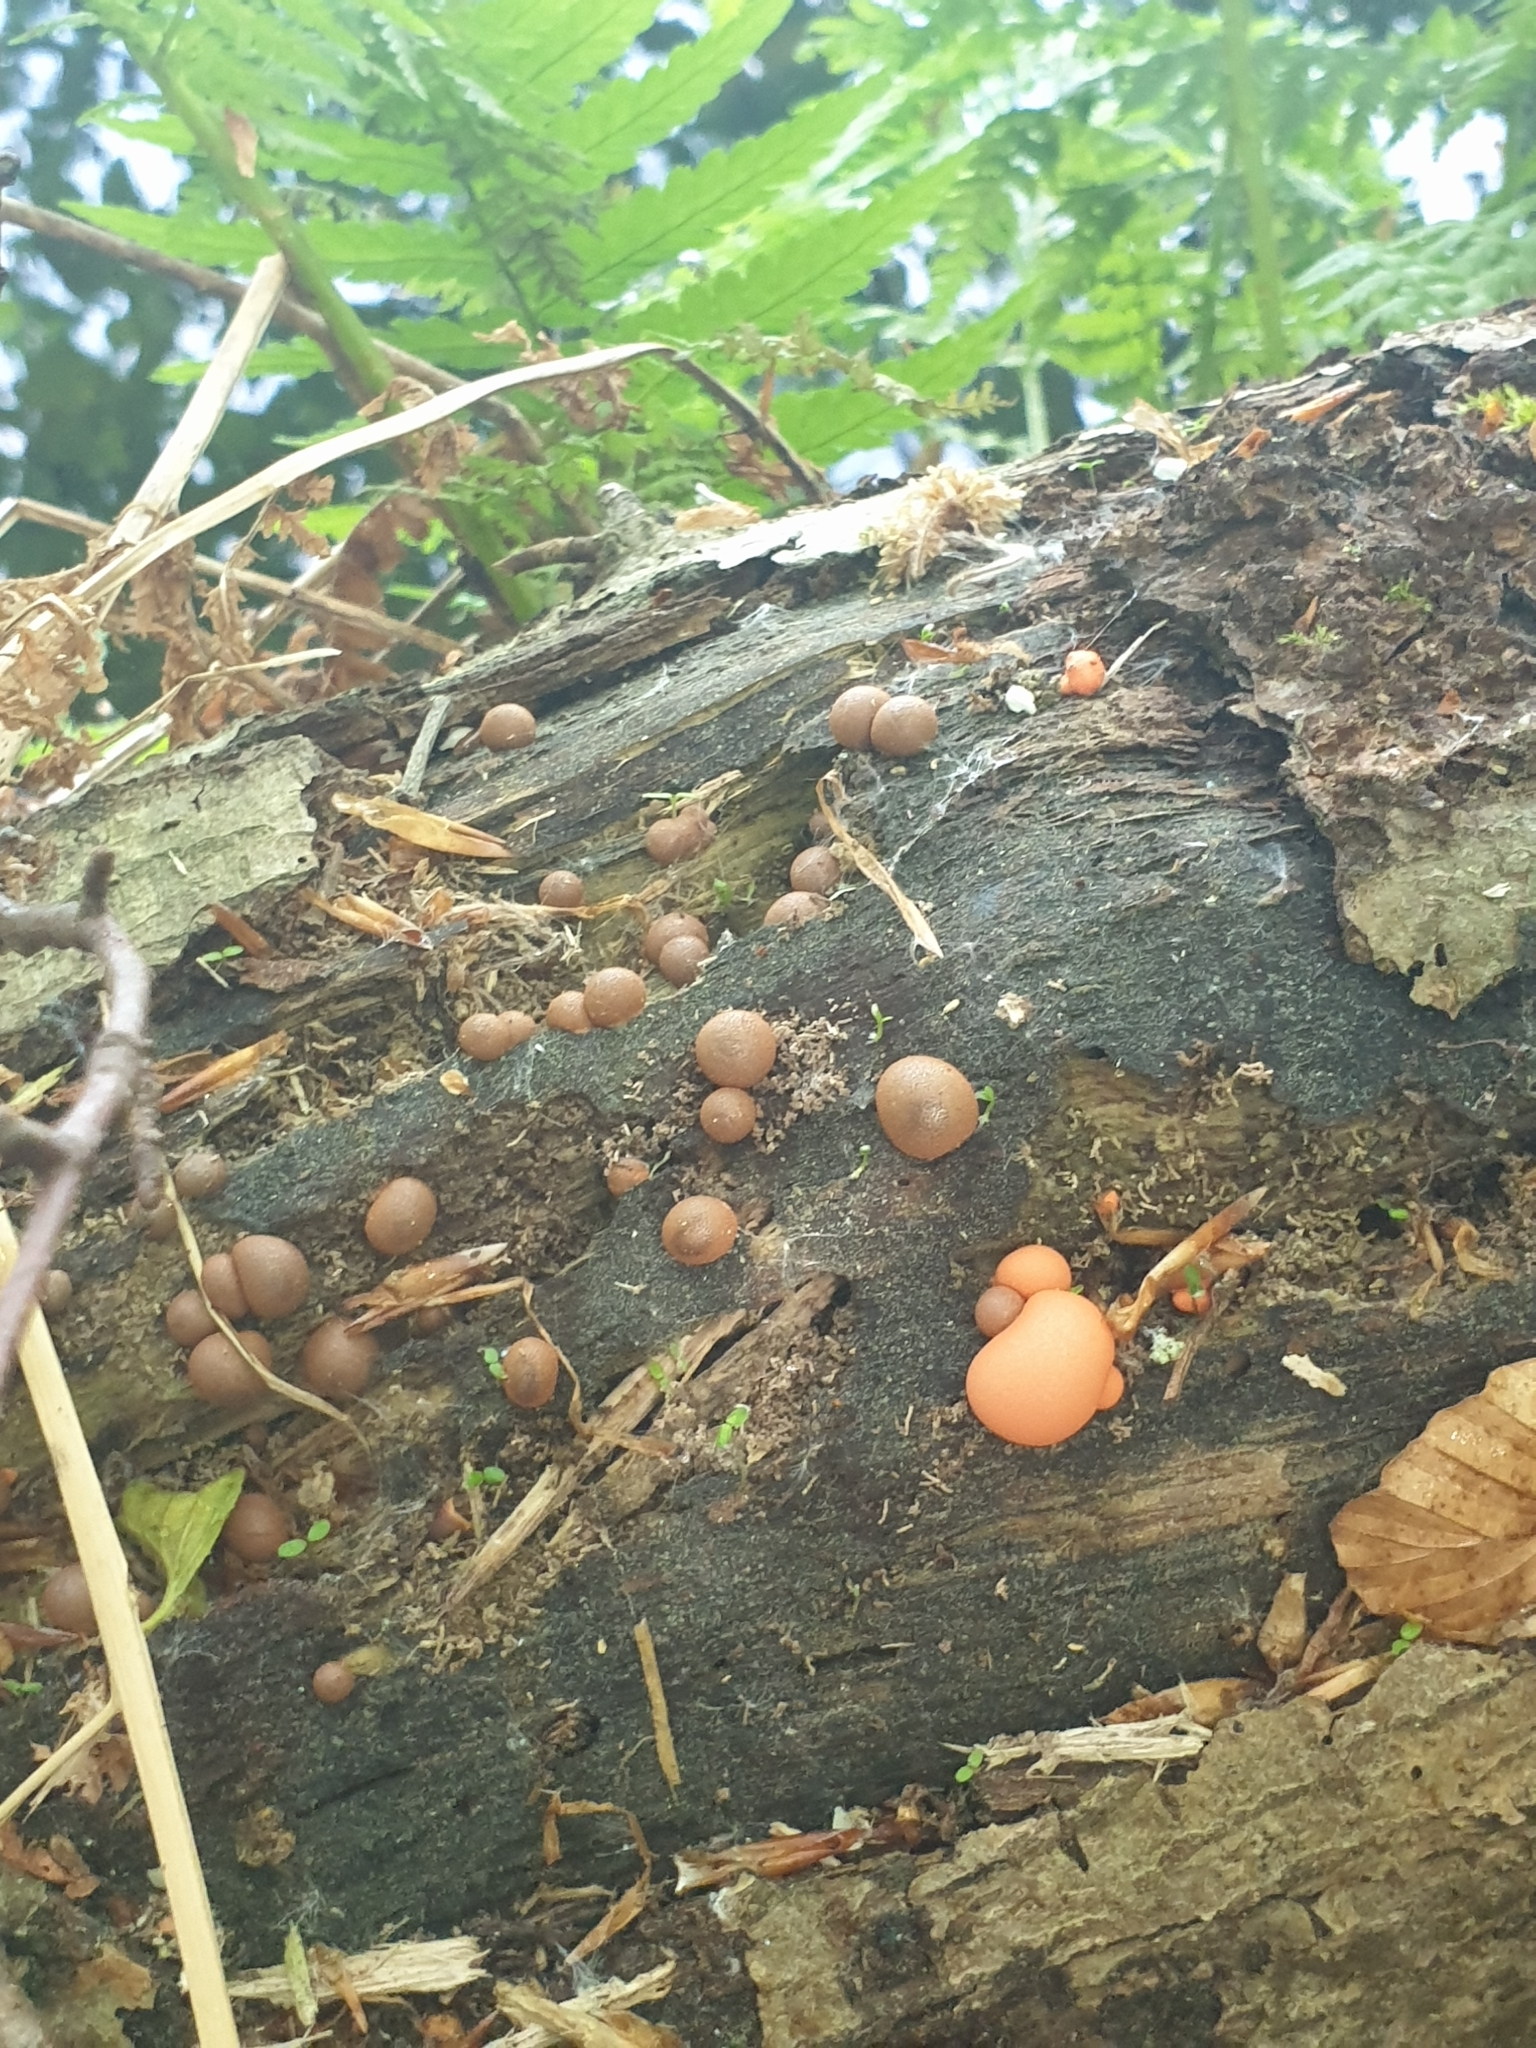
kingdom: Protozoa
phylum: Mycetozoa
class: Myxomycetes
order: Cribrariales
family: Tubiferaceae
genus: Lycogala
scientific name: Lycogala epidendrum
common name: Wolf's milk
